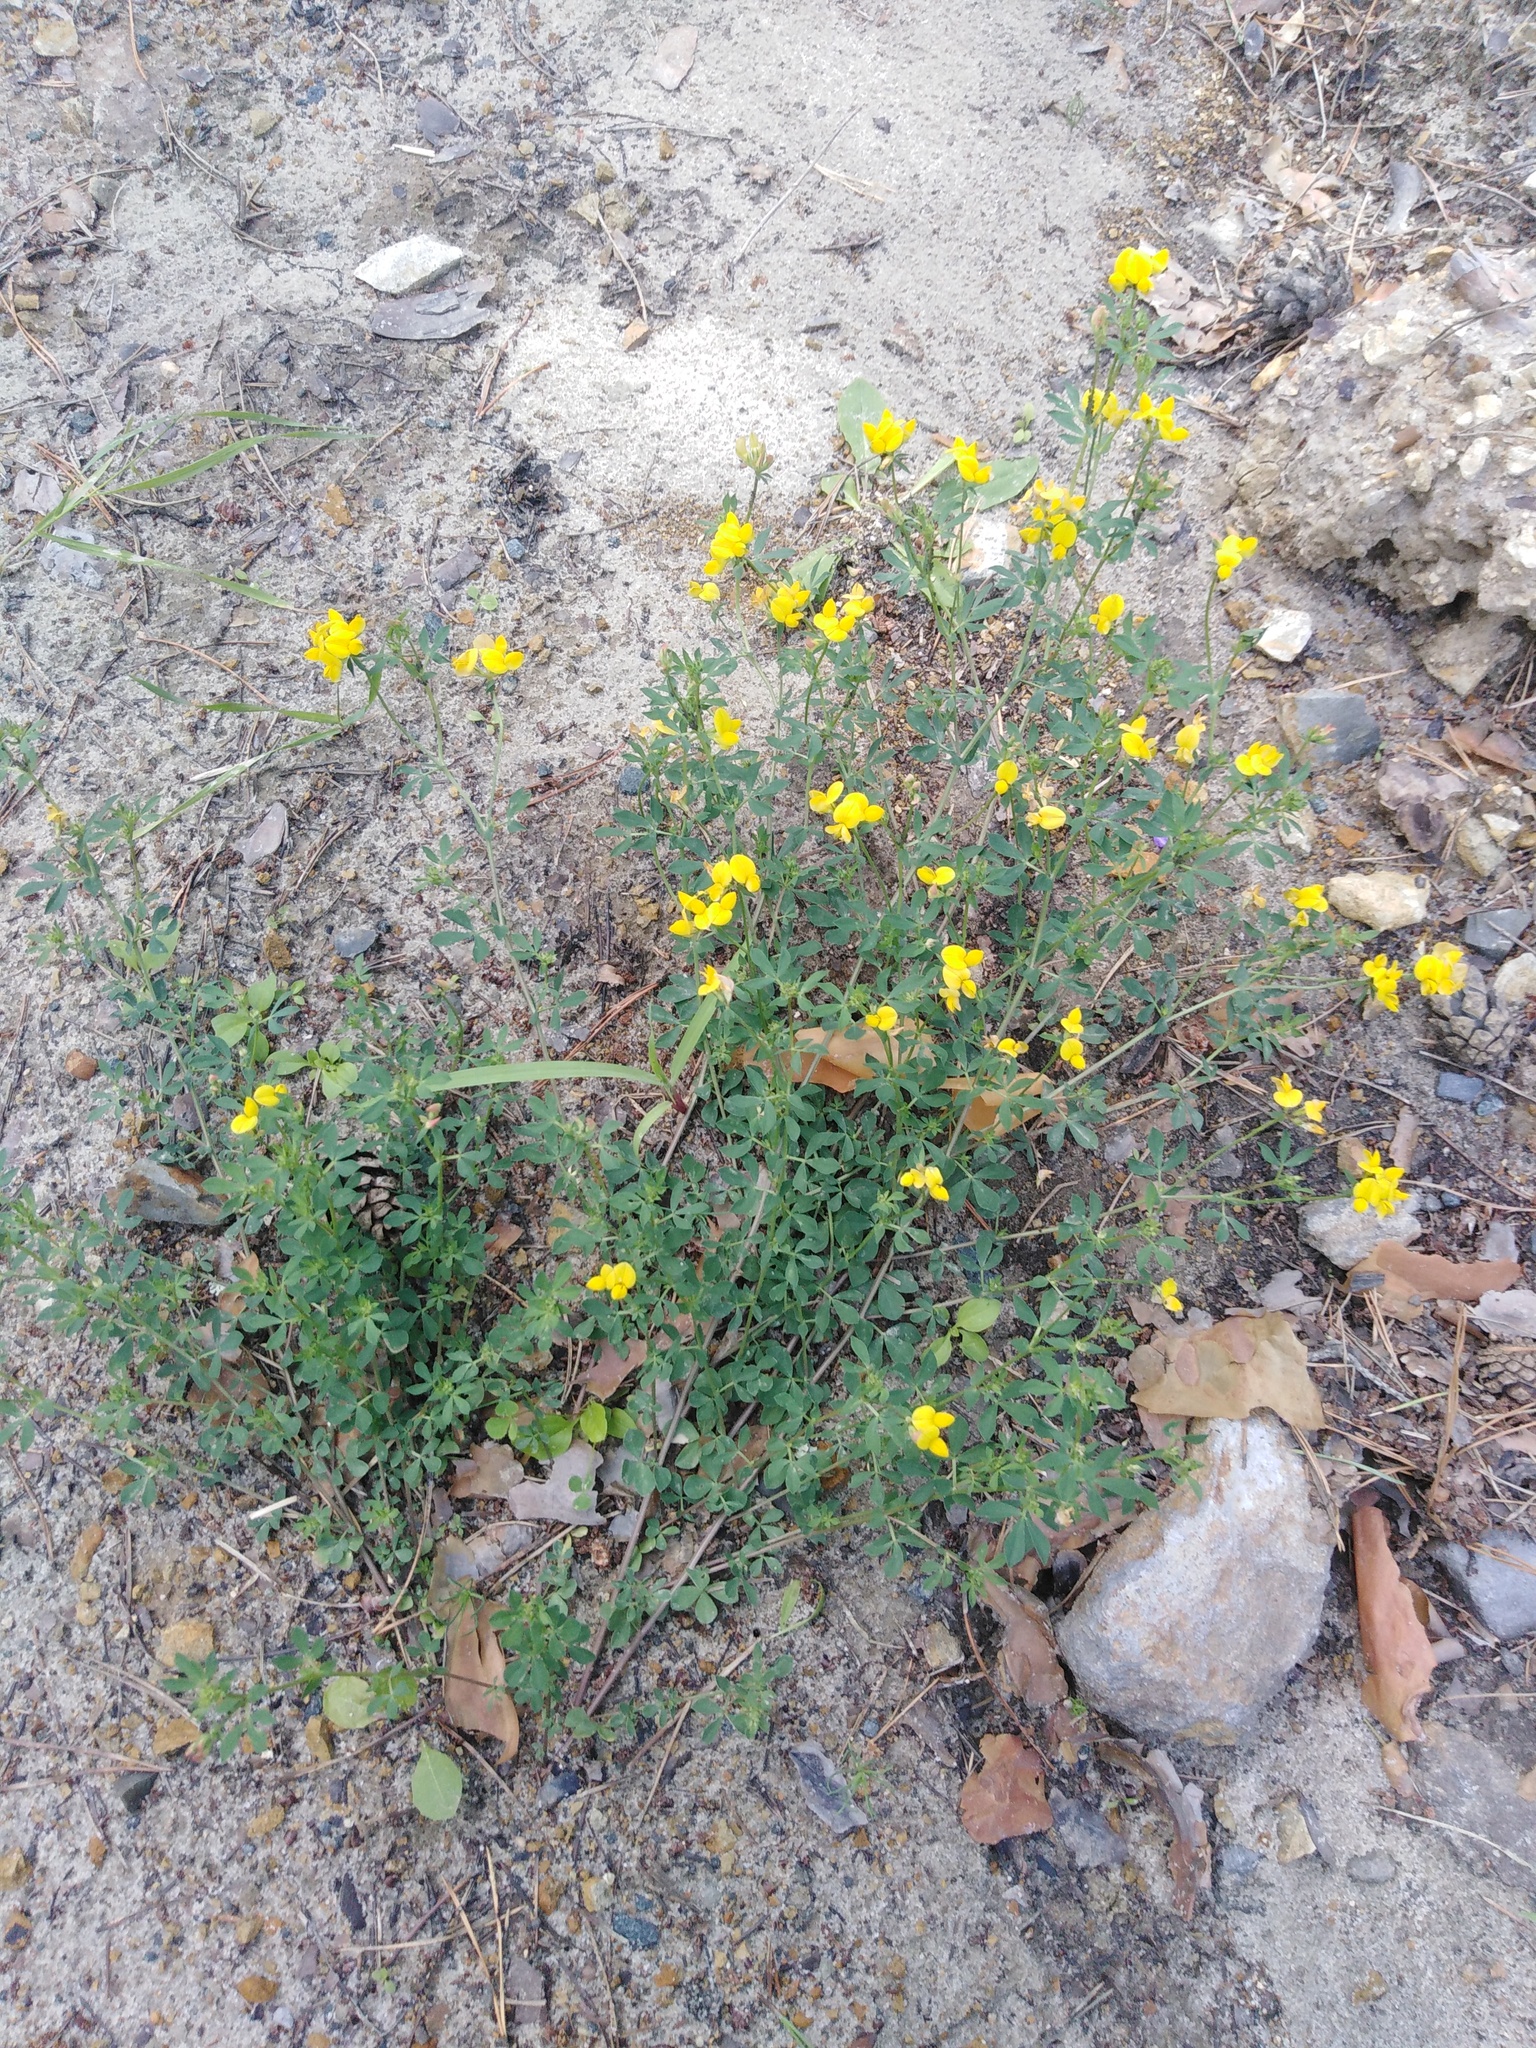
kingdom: Plantae
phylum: Tracheophyta
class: Magnoliopsida
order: Fabales
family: Fabaceae
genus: Lotus
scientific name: Lotus corniculatus
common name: Common bird's-foot-trefoil
